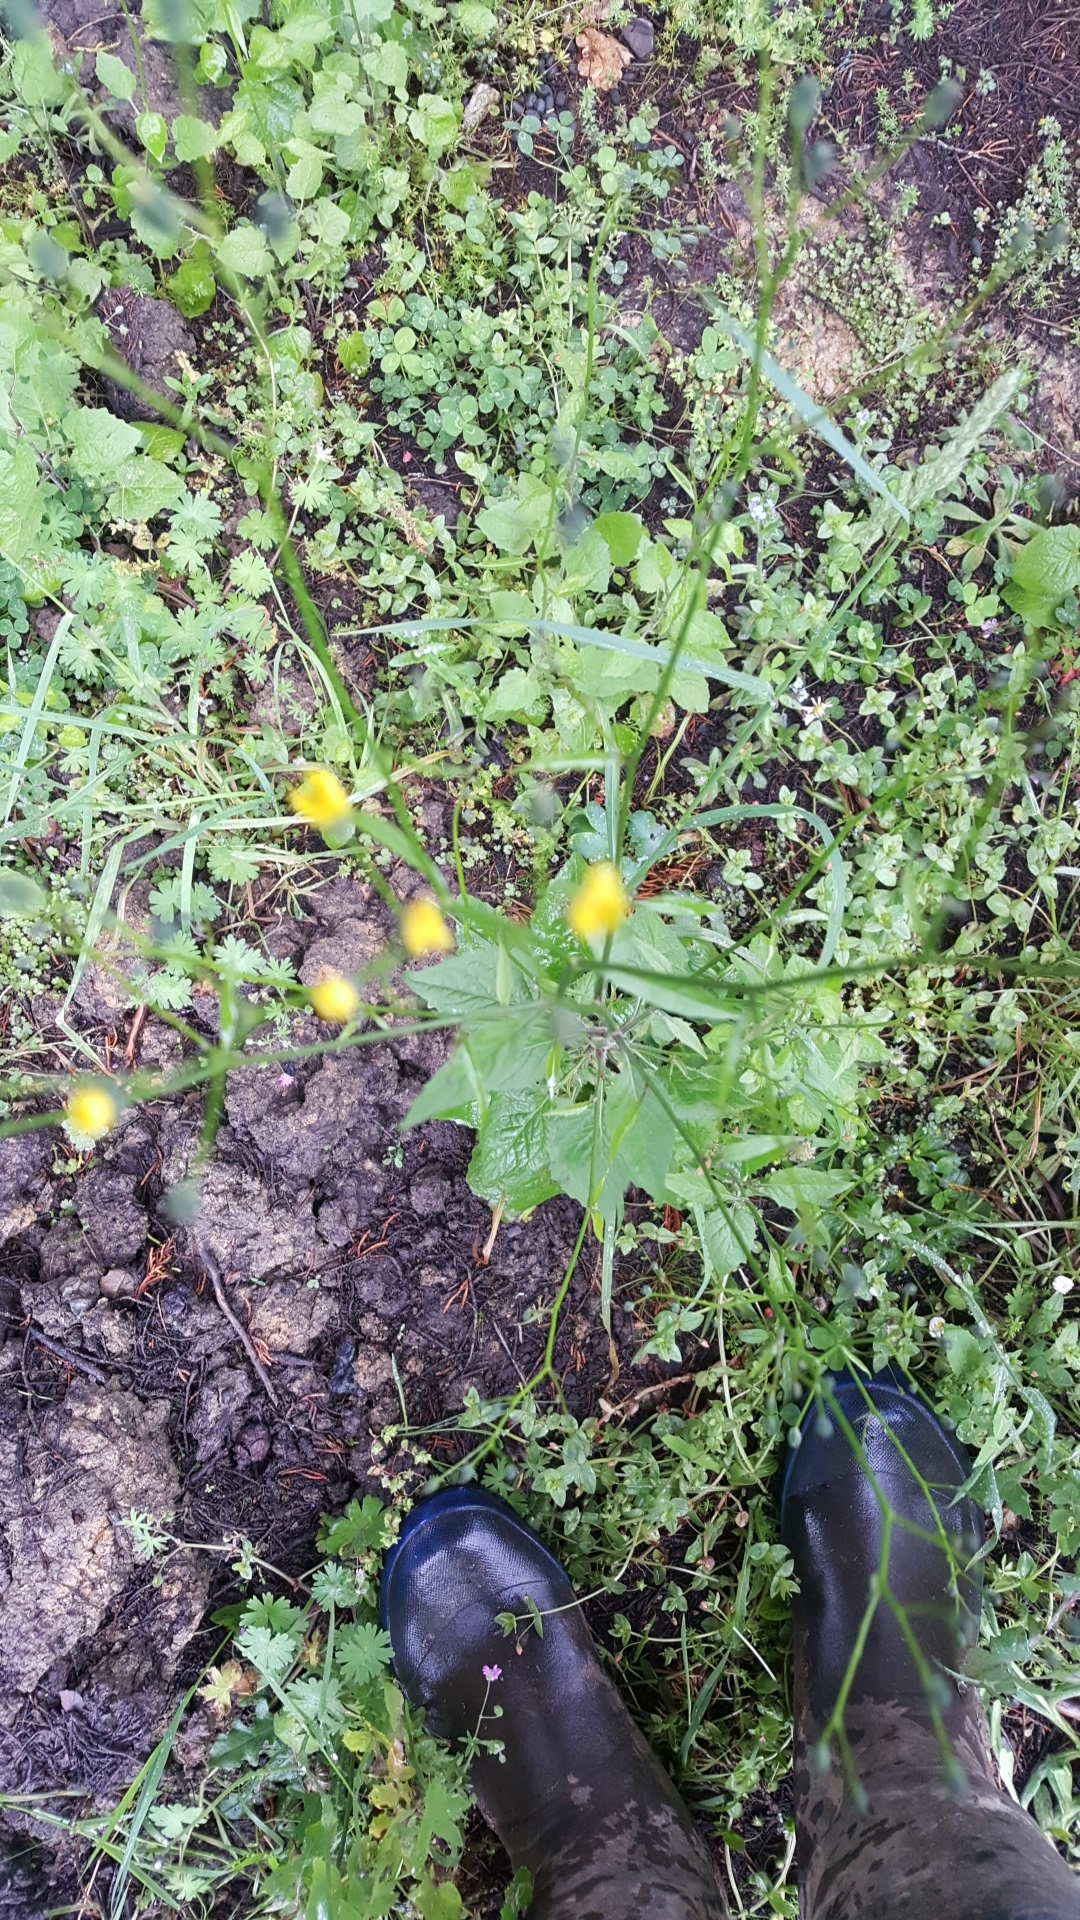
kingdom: Plantae
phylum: Tracheophyta
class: Magnoliopsida
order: Asterales
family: Asteraceae
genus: Lapsana
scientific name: Lapsana communis
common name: Nipplewort
